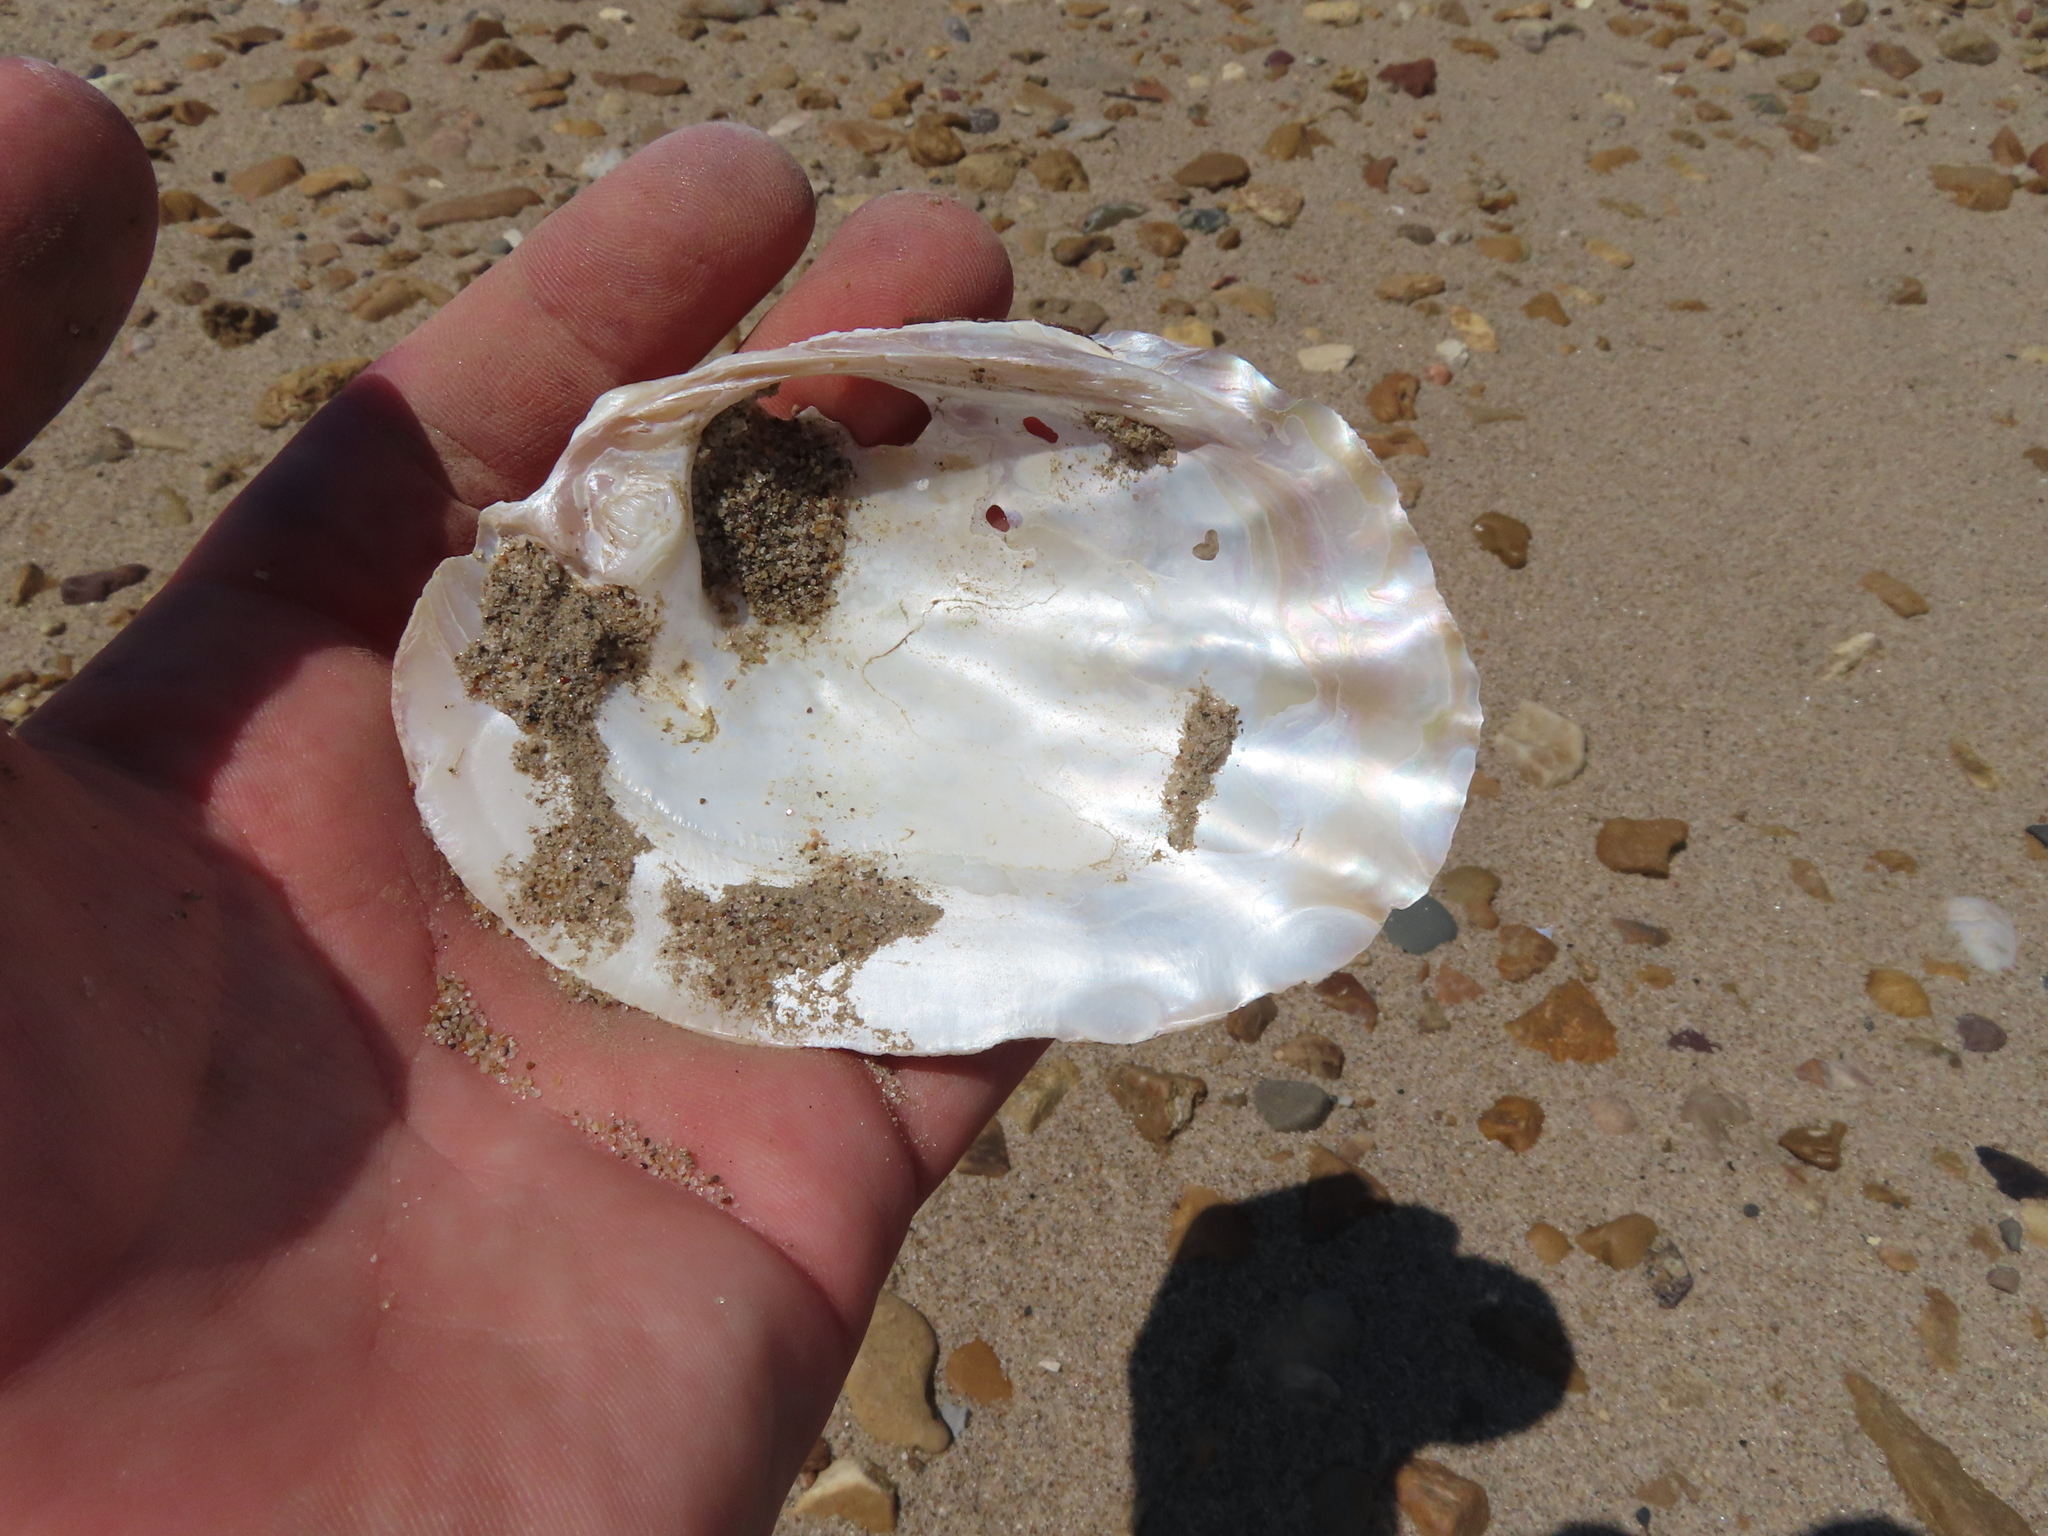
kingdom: Animalia
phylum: Mollusca
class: Bivalvia
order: Unionida
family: Unionidae
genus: Amblema
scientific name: Amblema plicata
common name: Threeridge
